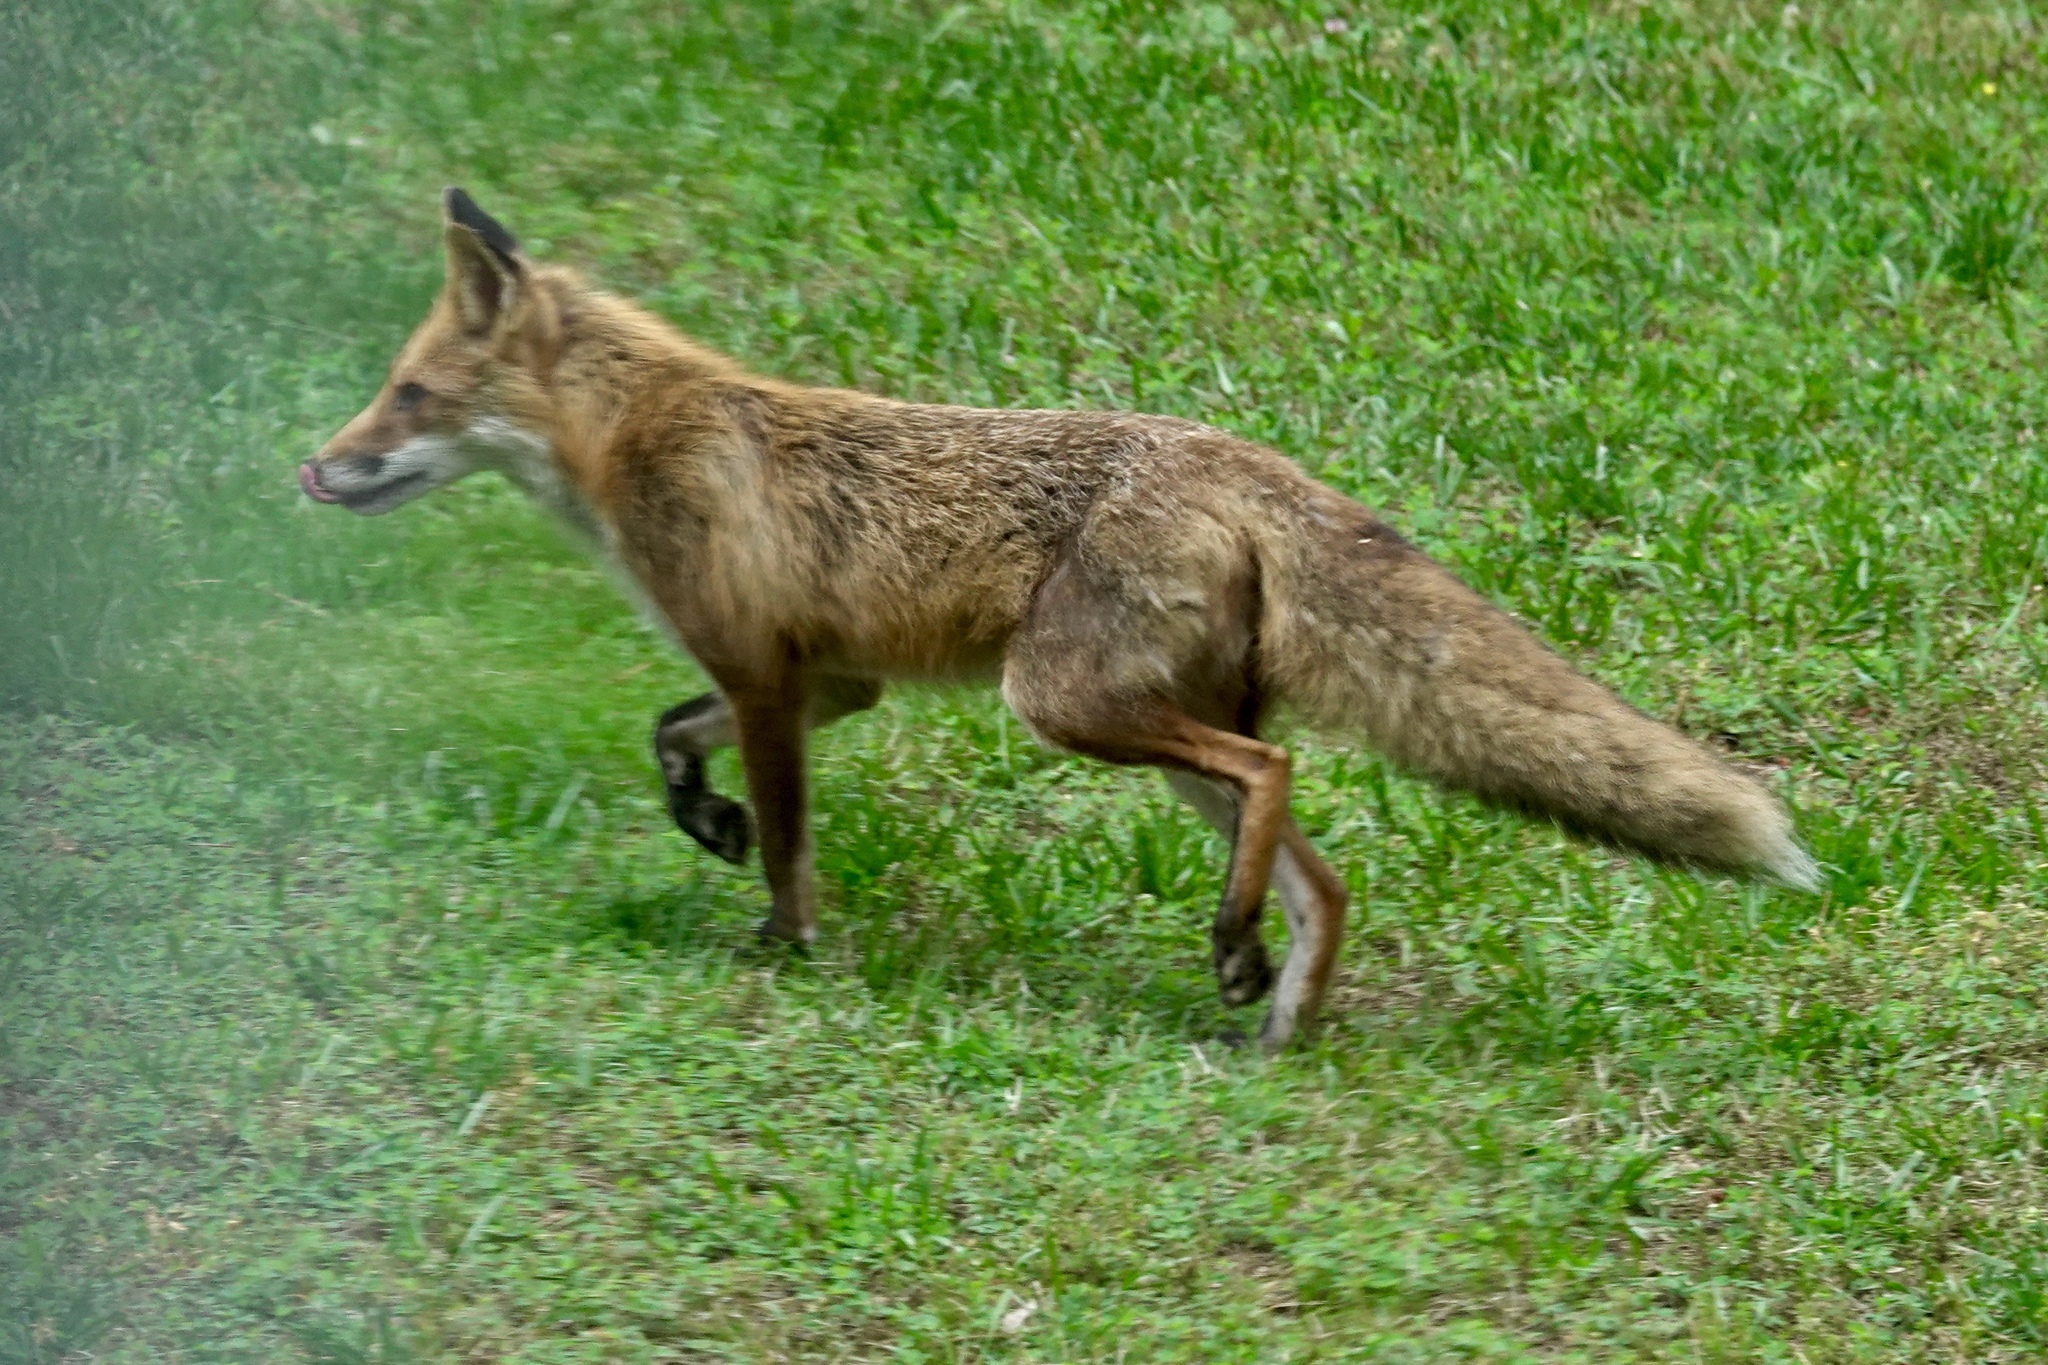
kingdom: Animalia
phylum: Chordata
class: Mammalia
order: Carnivora
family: Canidae
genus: Vulpes
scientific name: Vulpes vulpes
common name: Red fox
